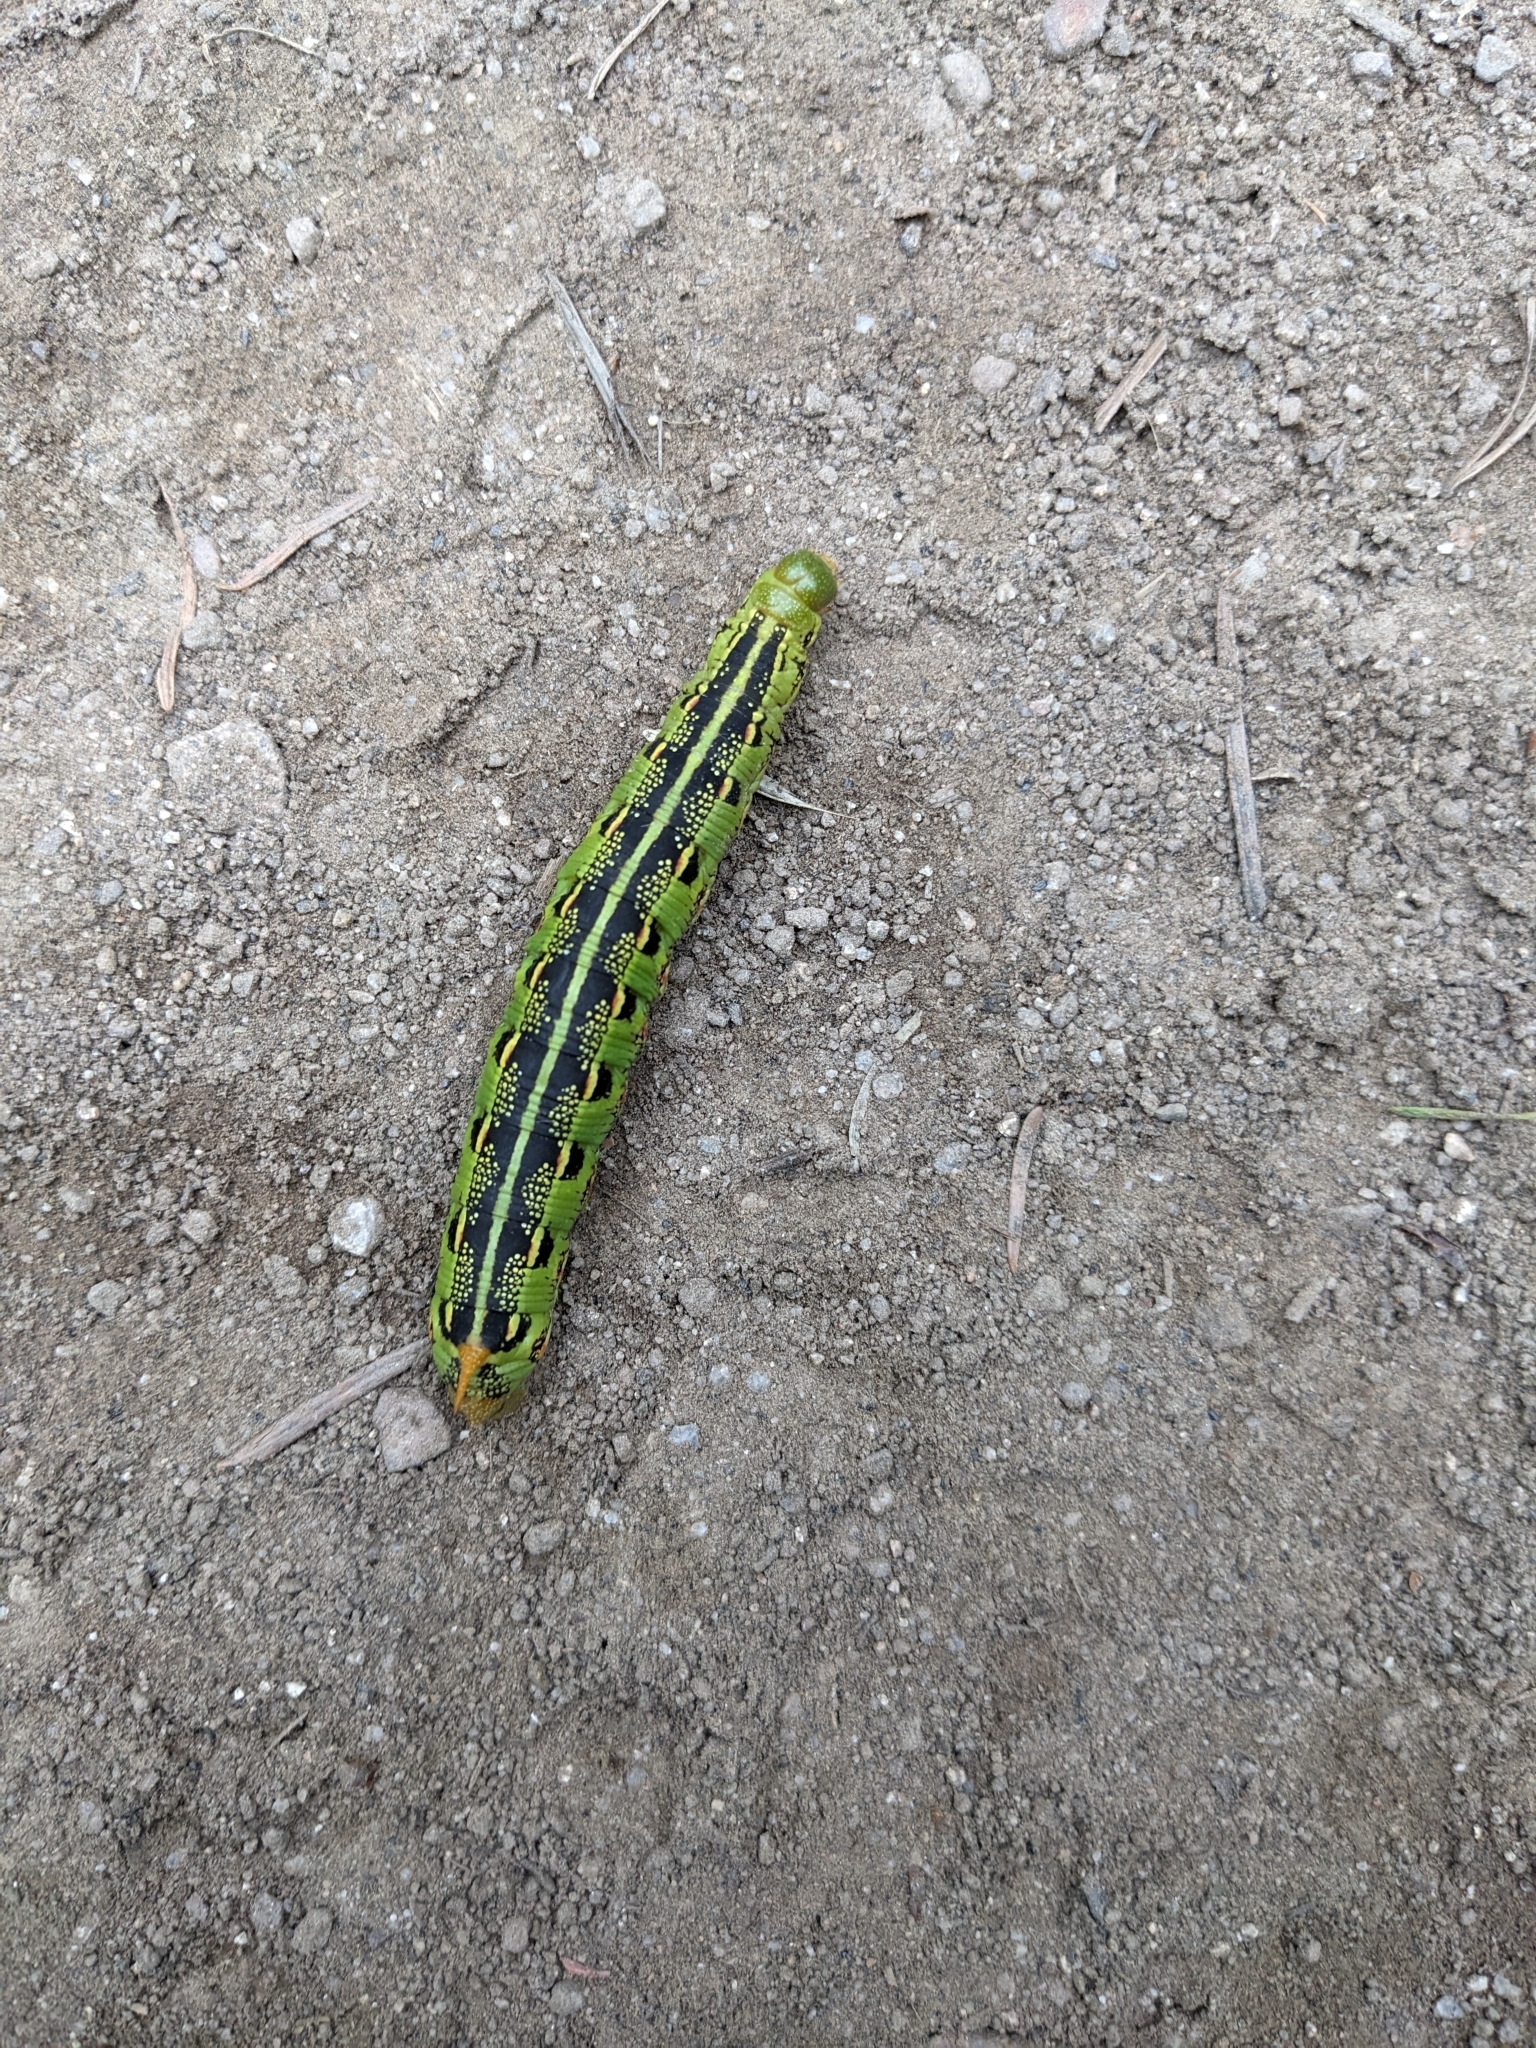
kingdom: Animalia
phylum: Arthropoda
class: Insecta
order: Lepidoptera
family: Sphingidae
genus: Hyles
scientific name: Hyles lineata
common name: White-lined sphinx
